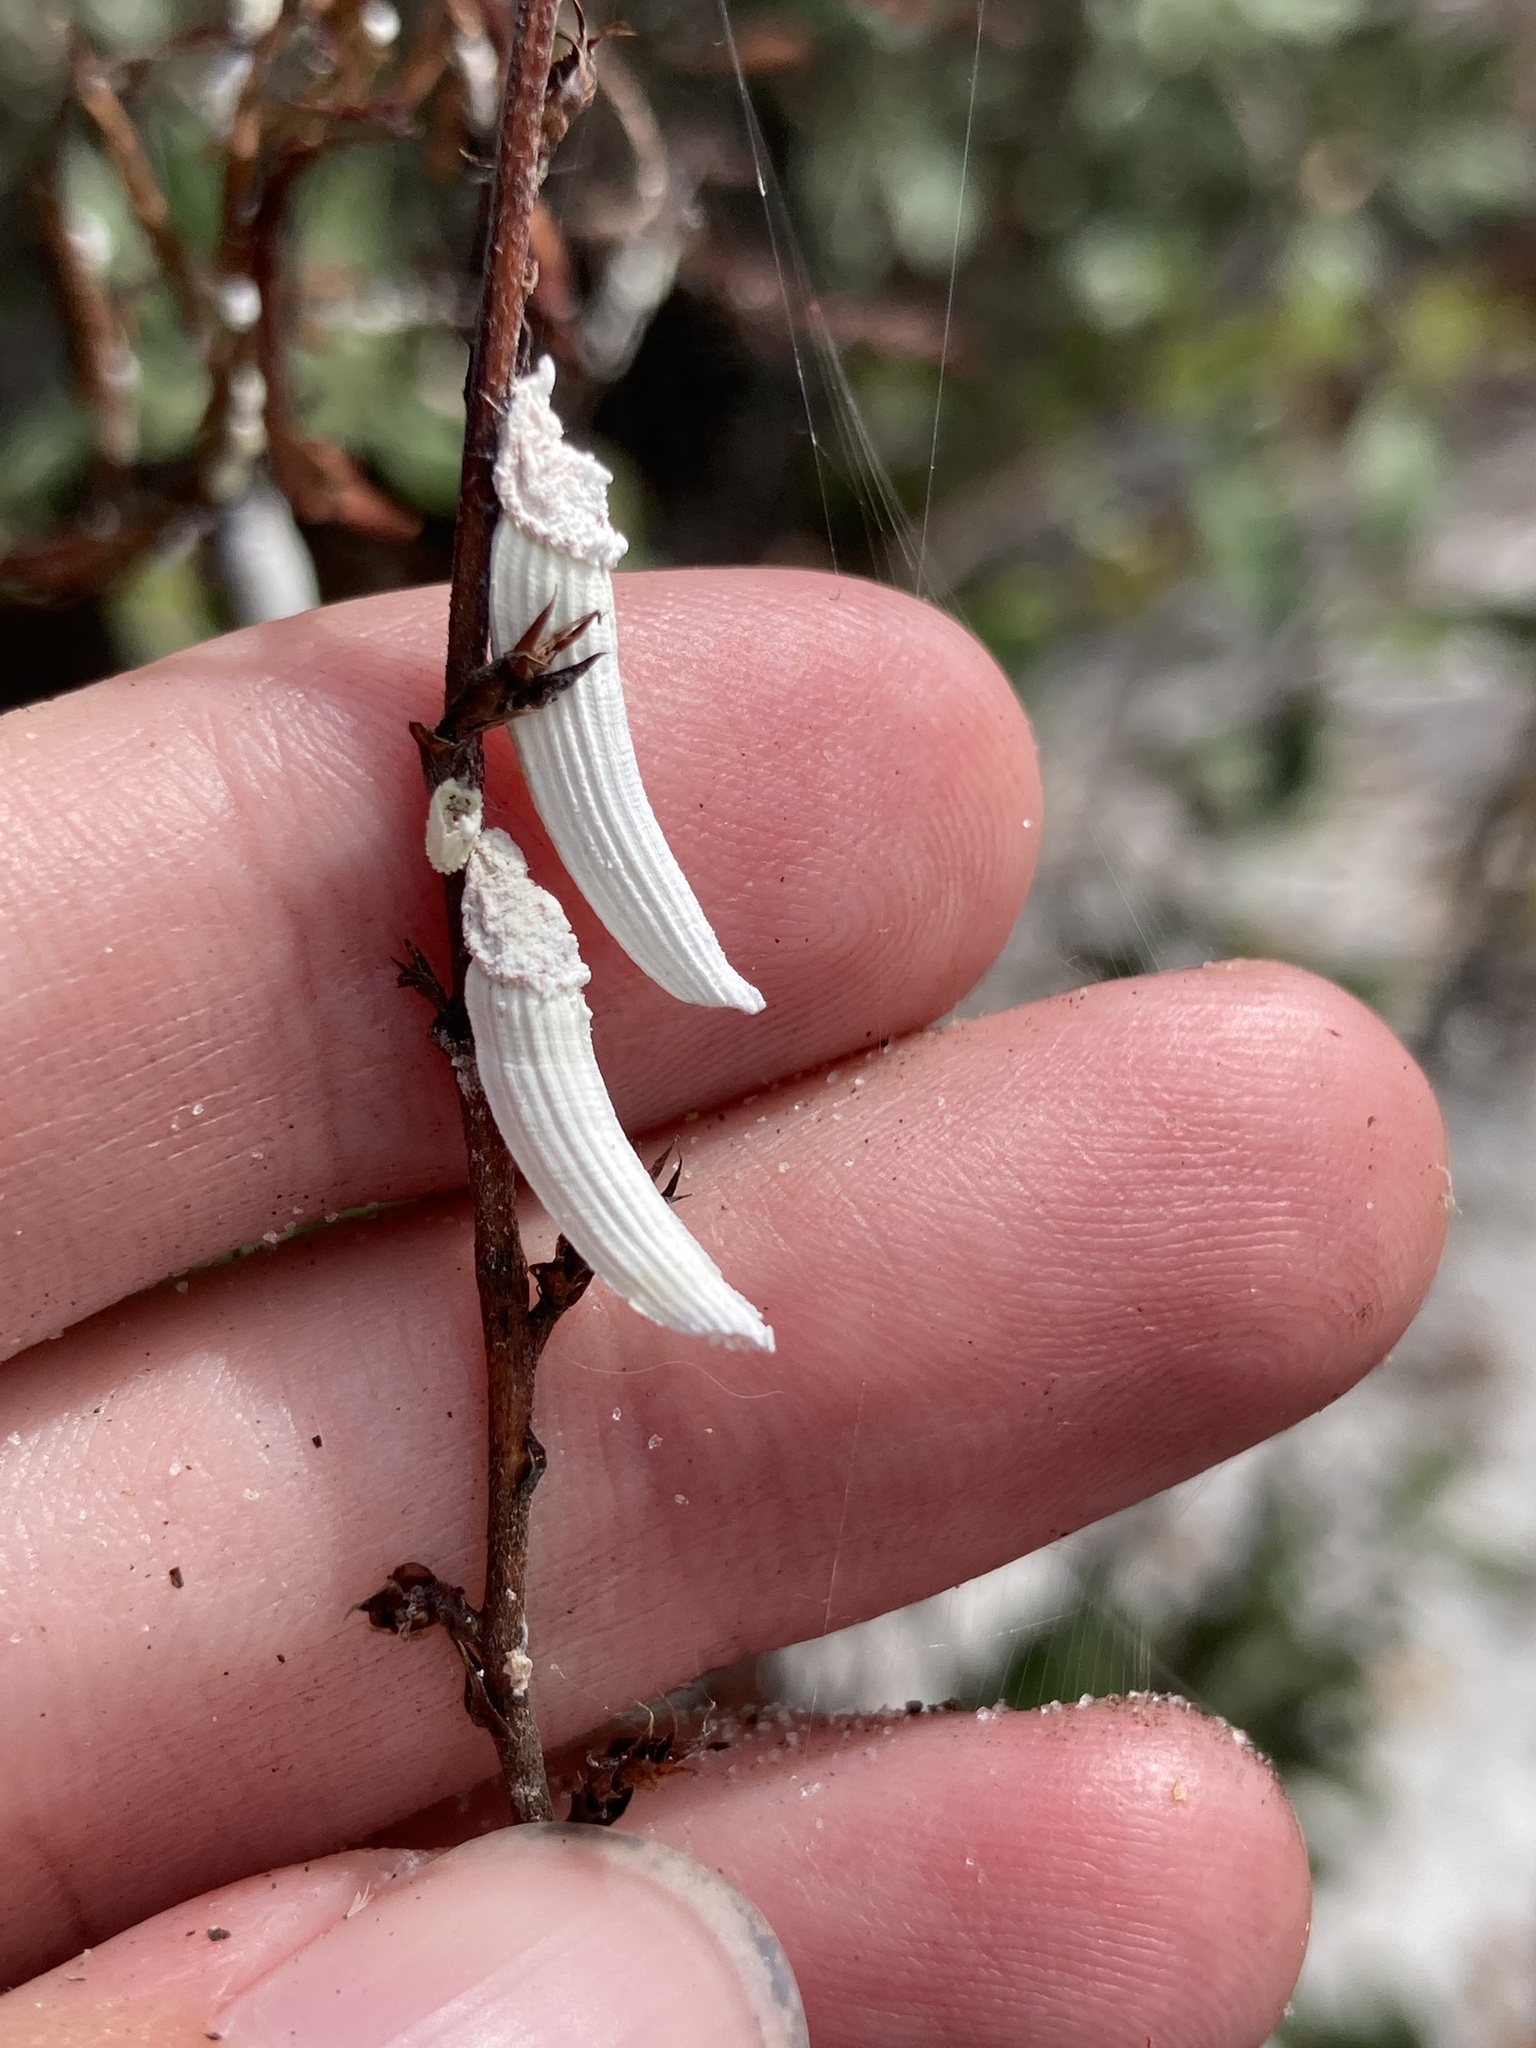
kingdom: Animalia
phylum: Arthropoda
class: Insecta
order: Hemiptera
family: Margarodidae
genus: Crypticerya
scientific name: Crypticerya genistae
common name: Giant scale insect
